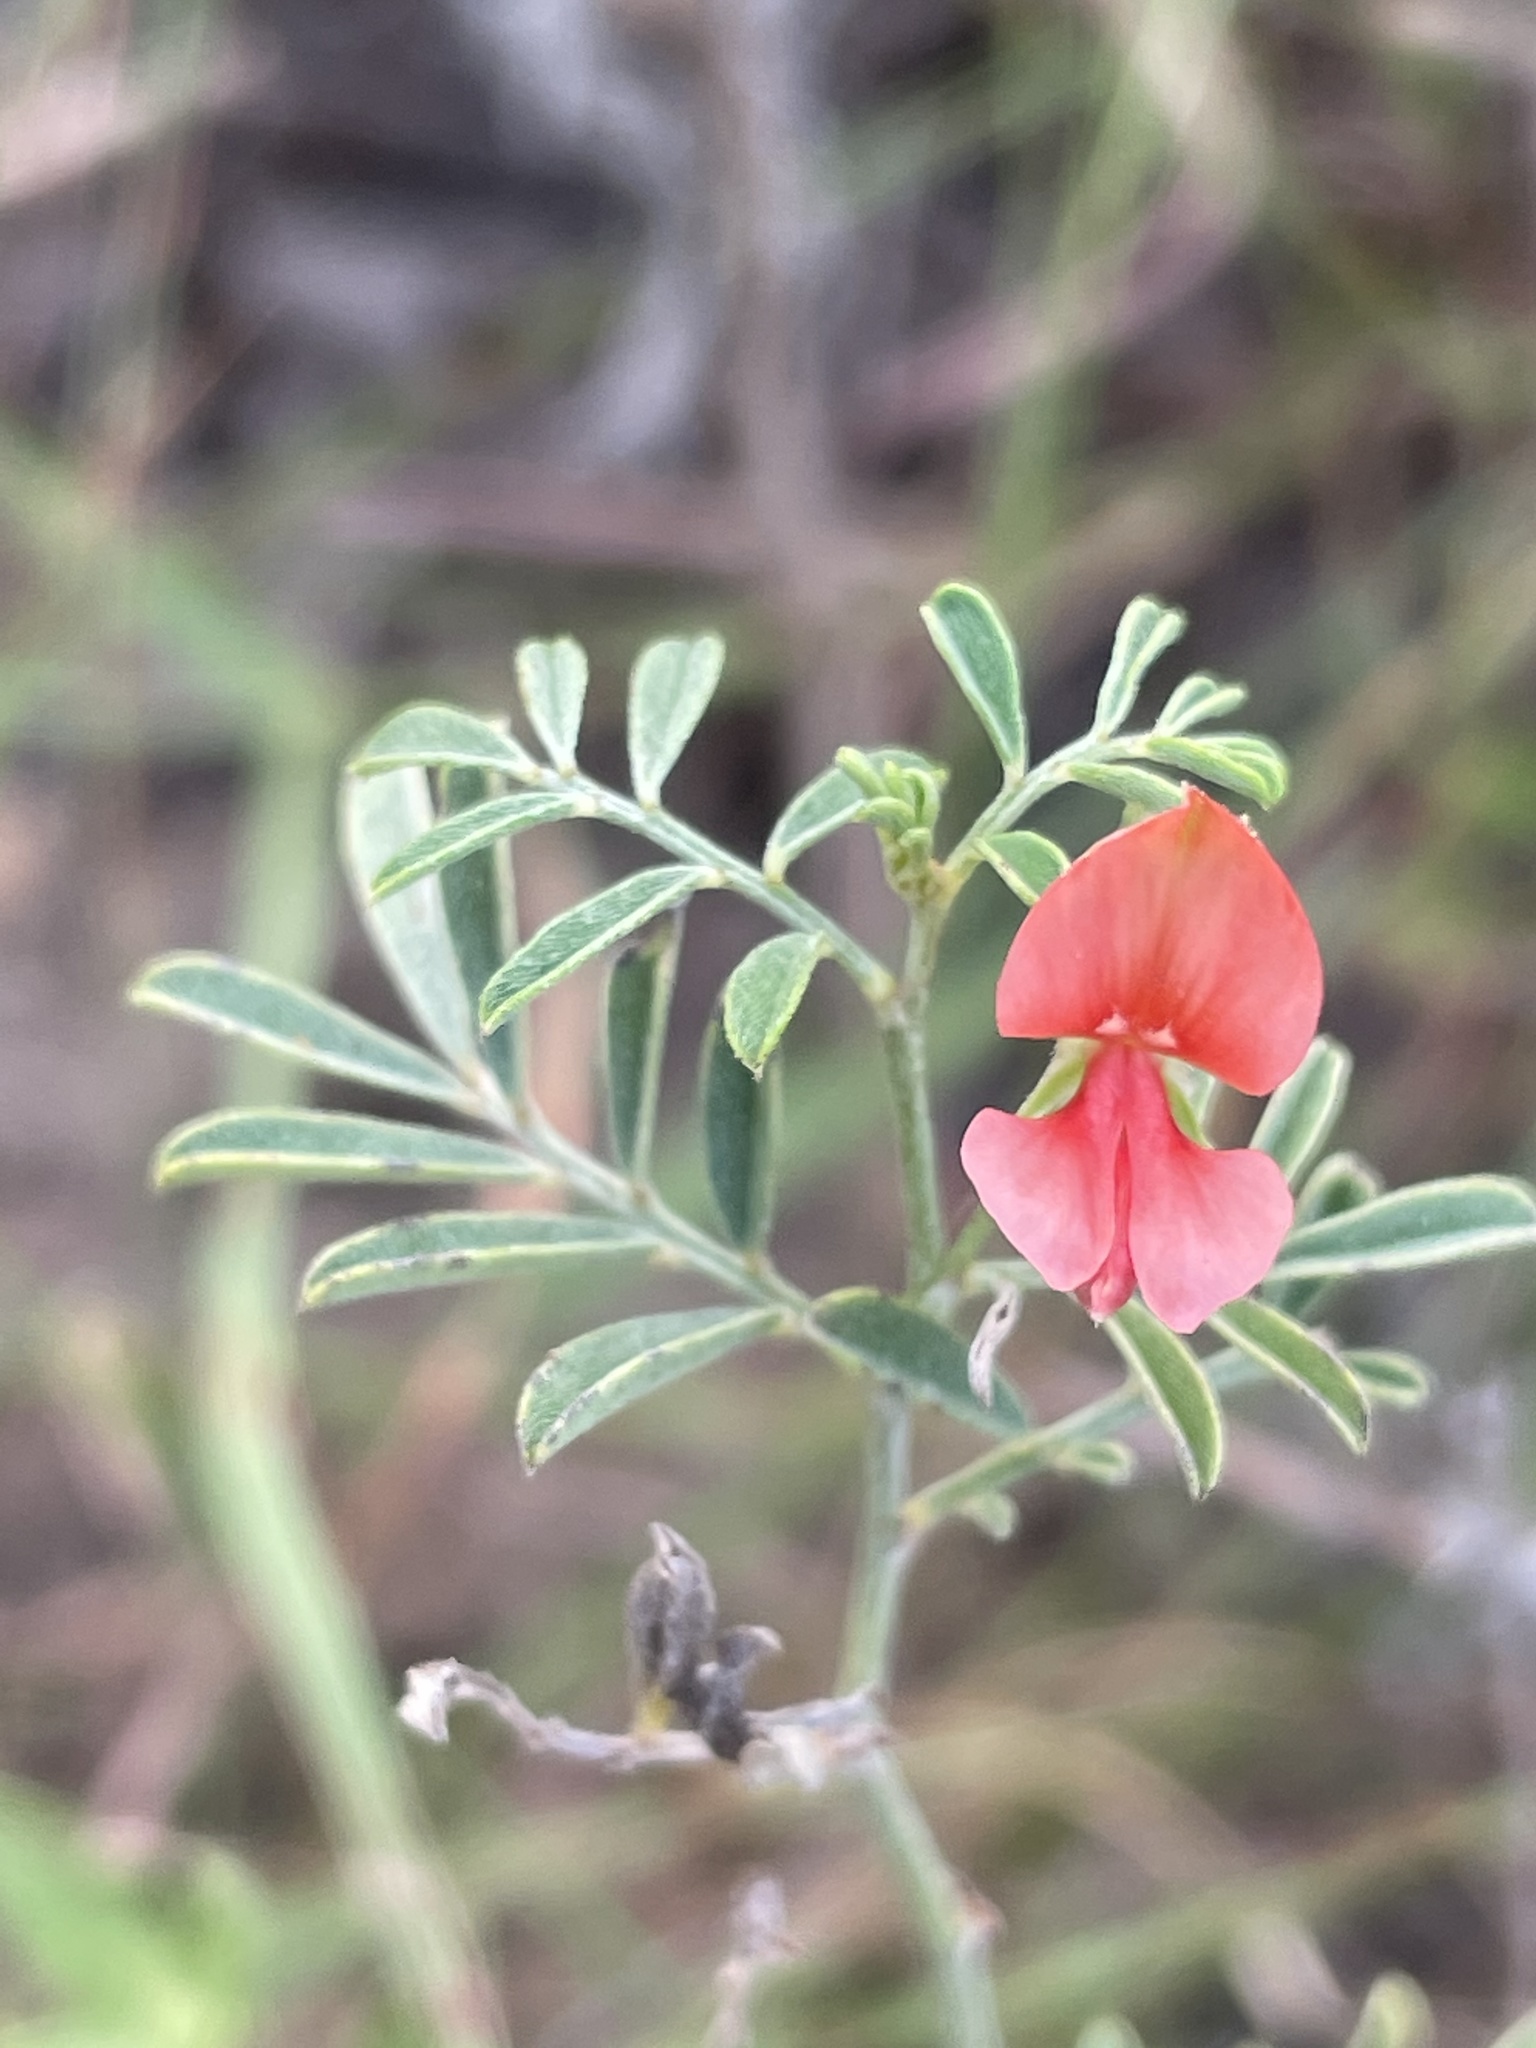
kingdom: Plantae
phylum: Tracheophyta
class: Magnoliopsida
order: Fabales
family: Fabaceae
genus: Indigofera
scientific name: Indigofera miniata
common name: Coast indigo
